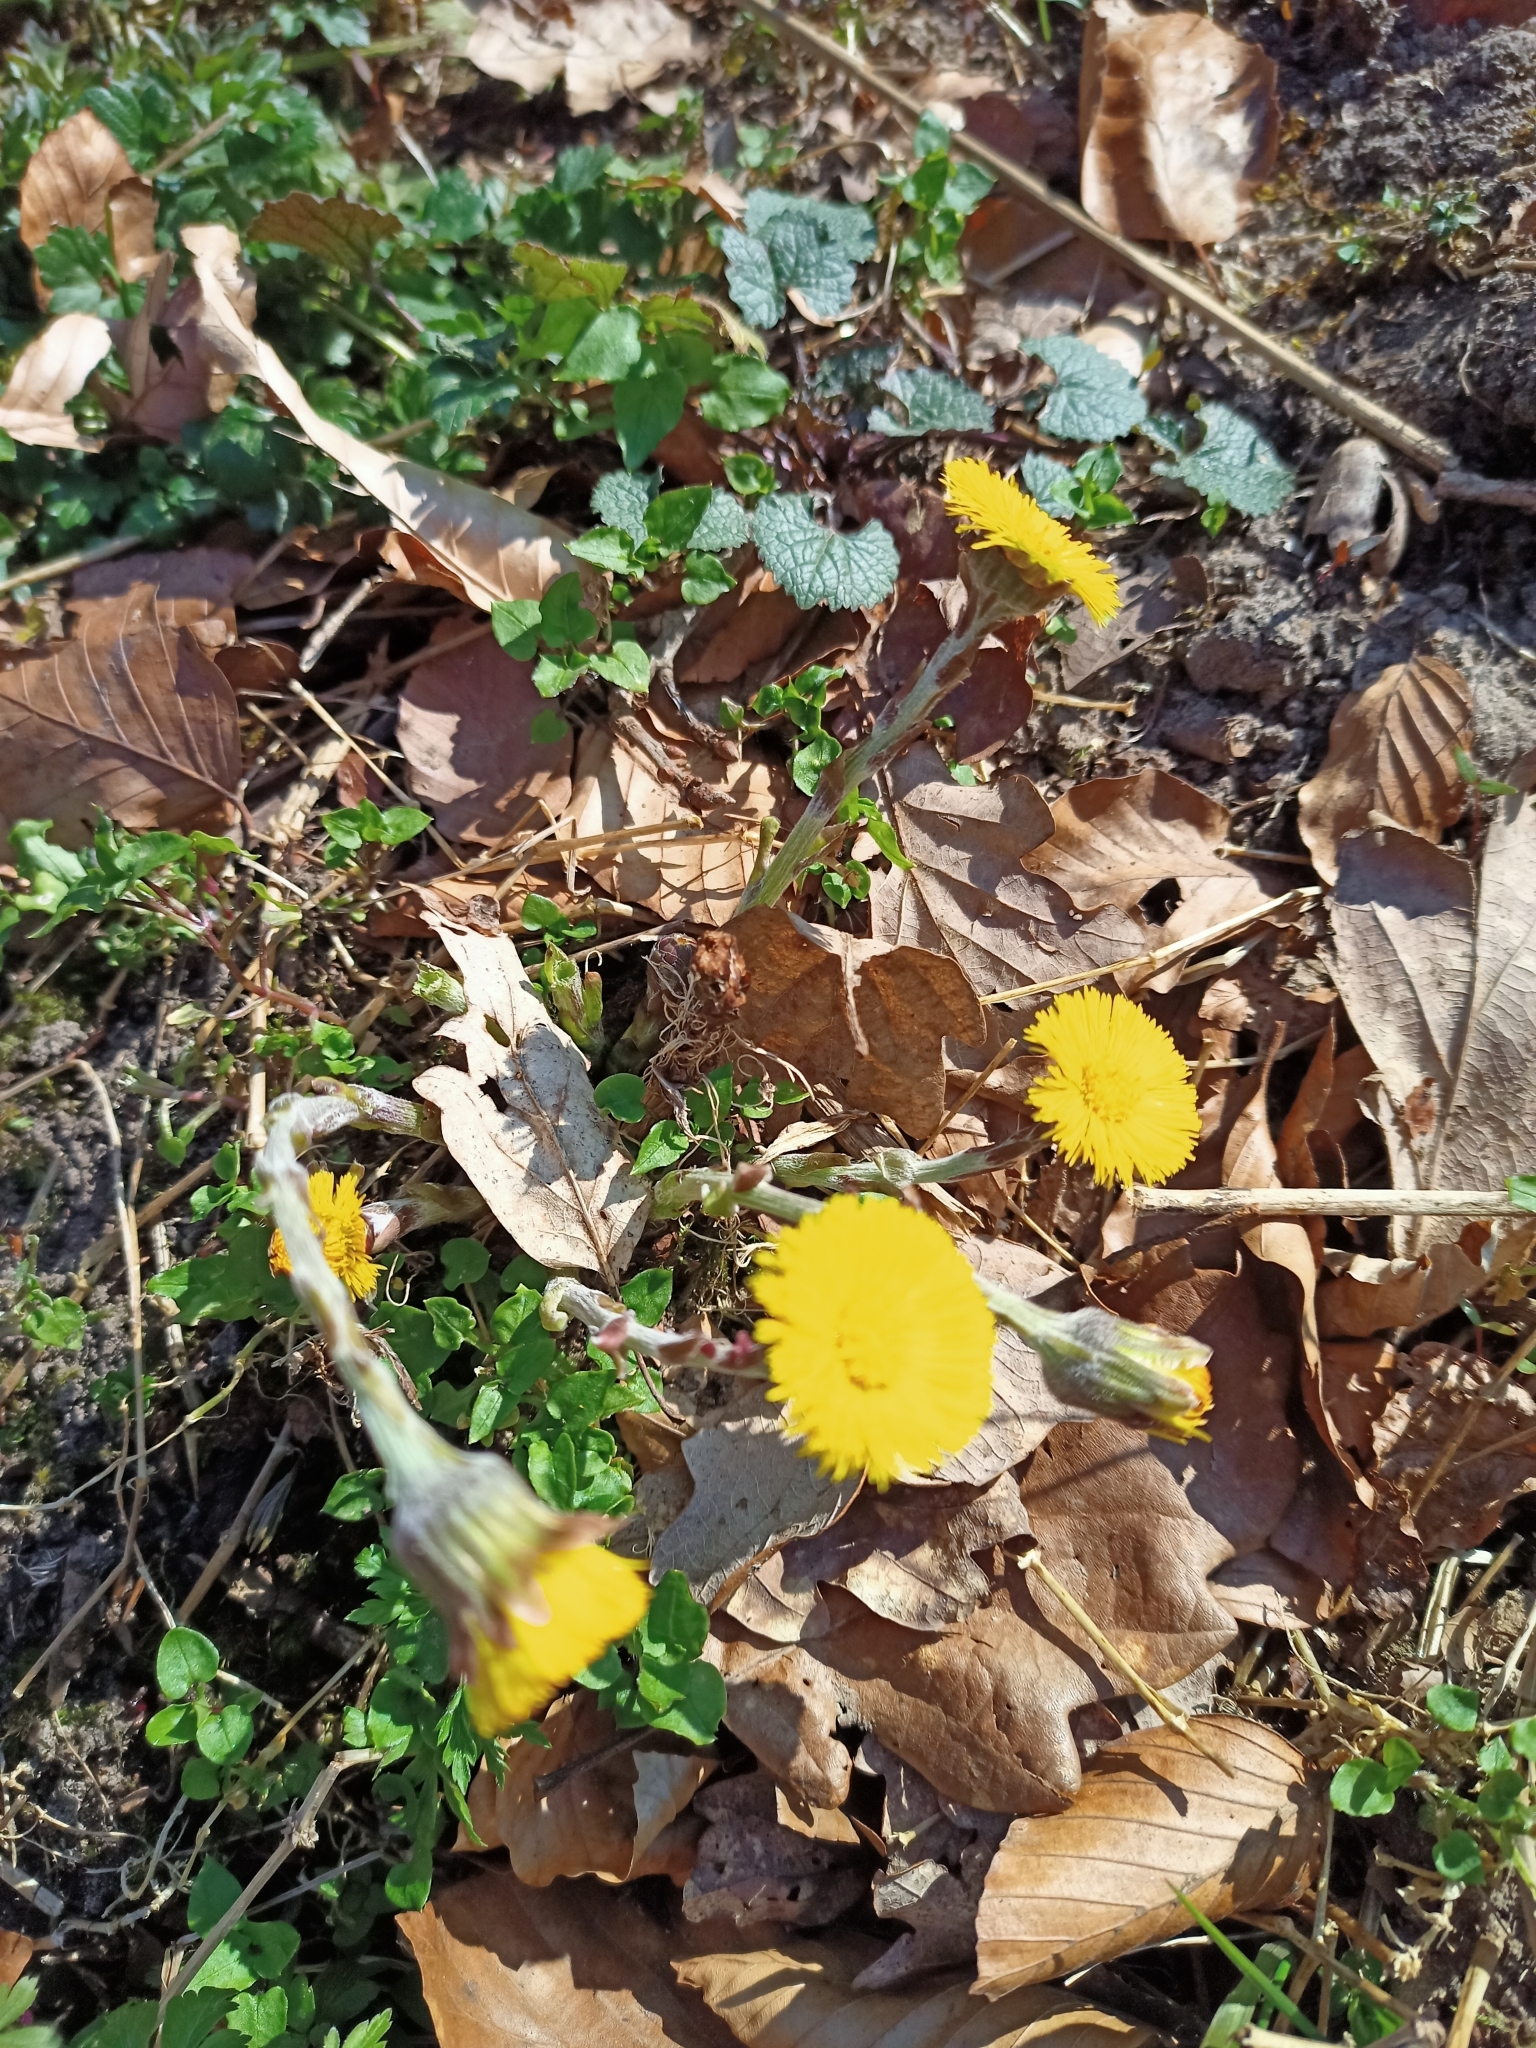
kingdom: Plantae
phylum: Tracheophyta
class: Magnoliopsida
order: Asterales
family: Asteraceae
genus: Tussilago
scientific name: Tussilago farfara
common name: Coltsfoot
